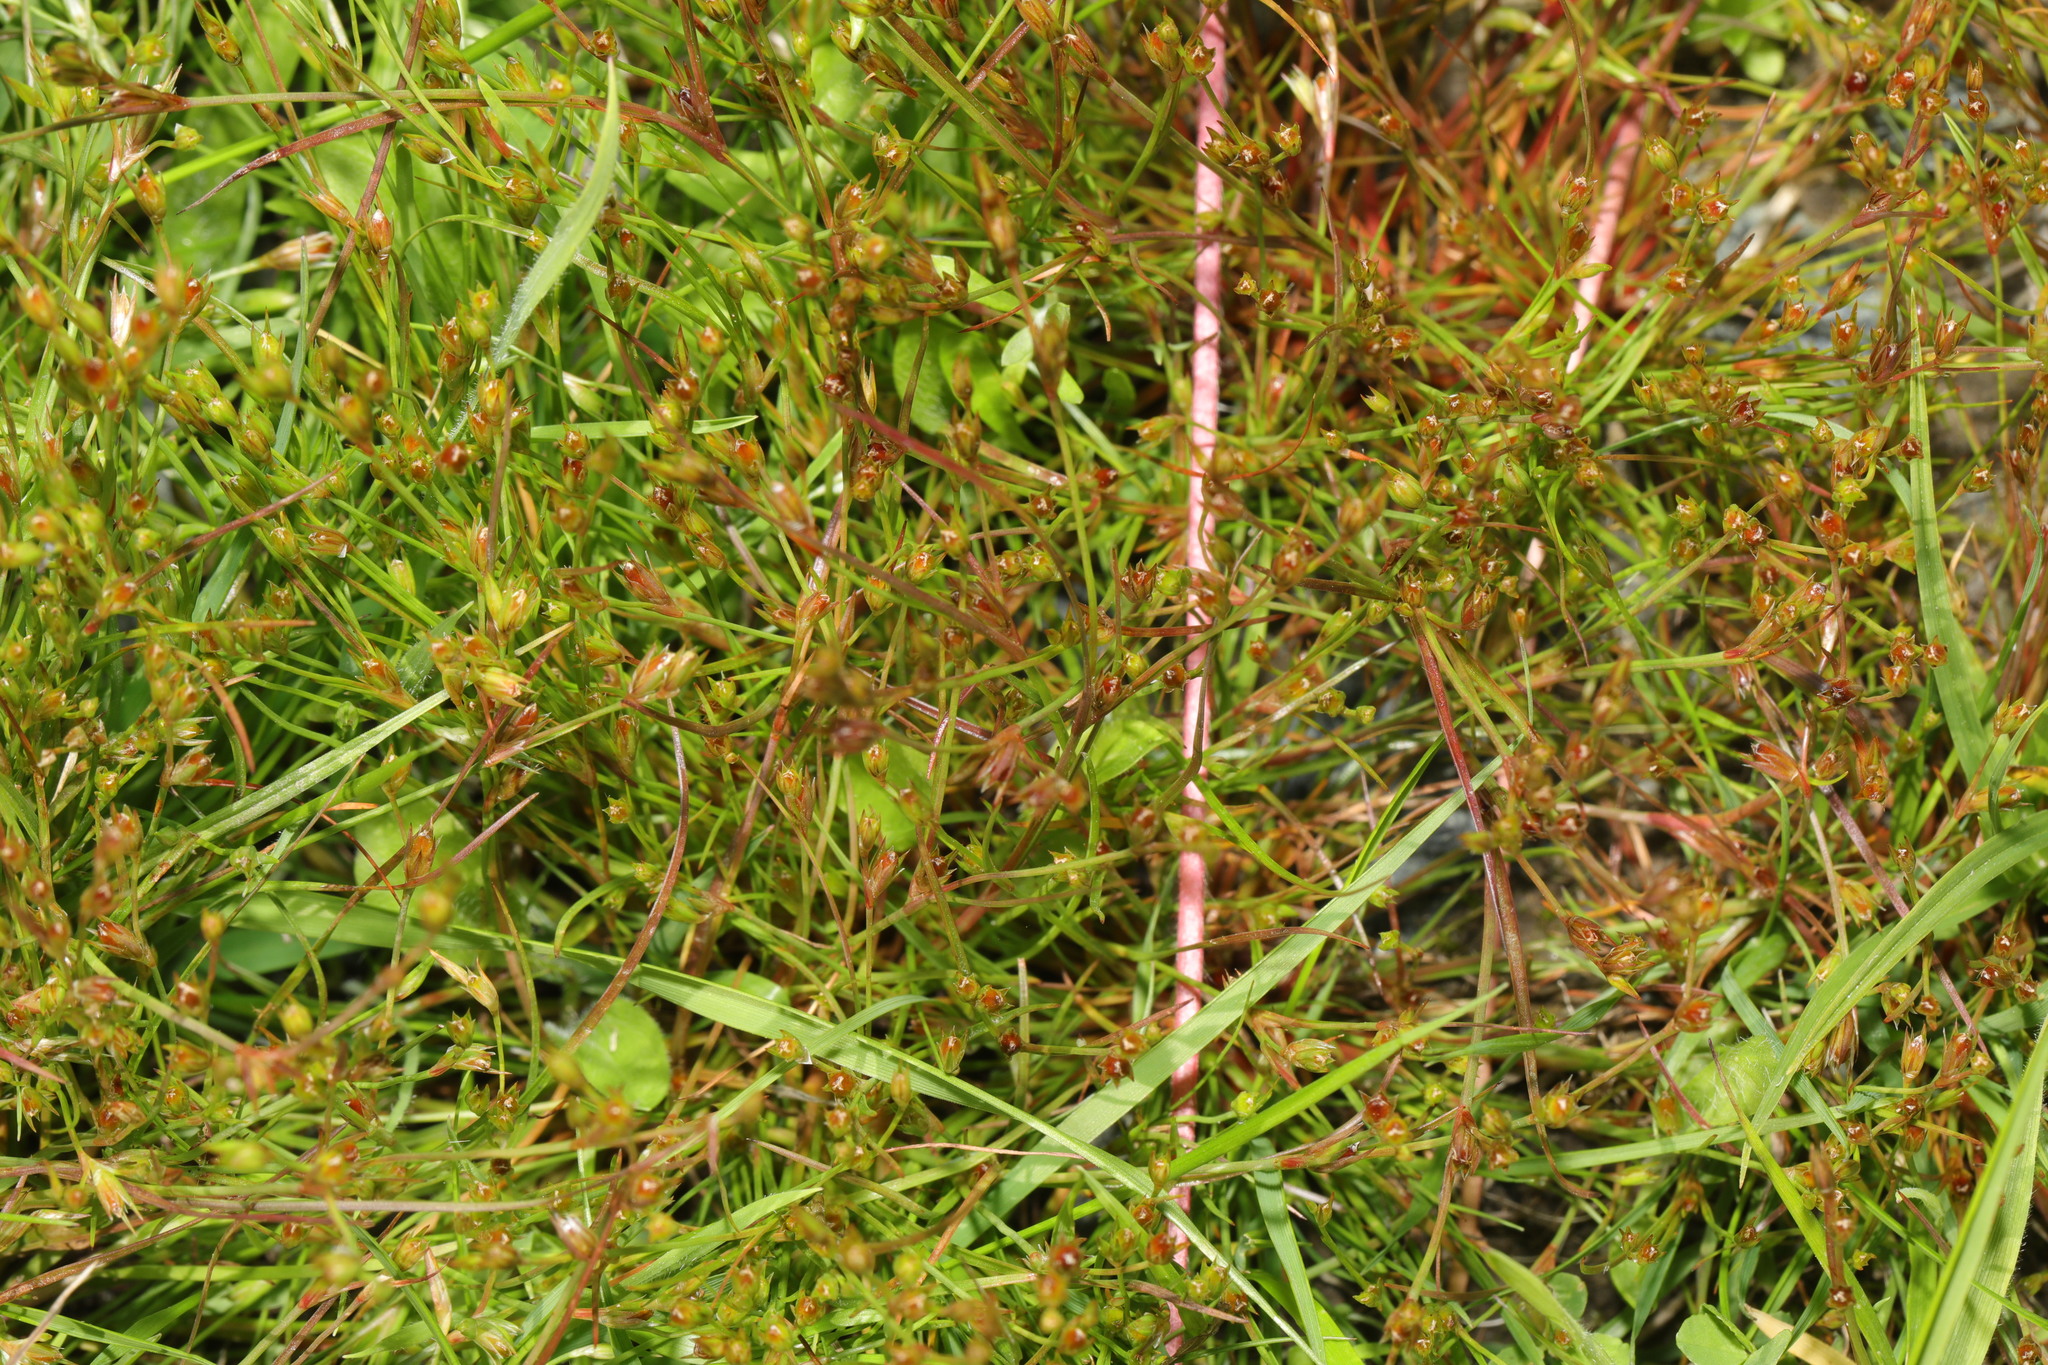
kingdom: Plantae
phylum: Tracheophyta
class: Liliopsida
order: Poales
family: Juncaceae
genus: Juncus
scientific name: Juncus bufonius
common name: Toad rush
